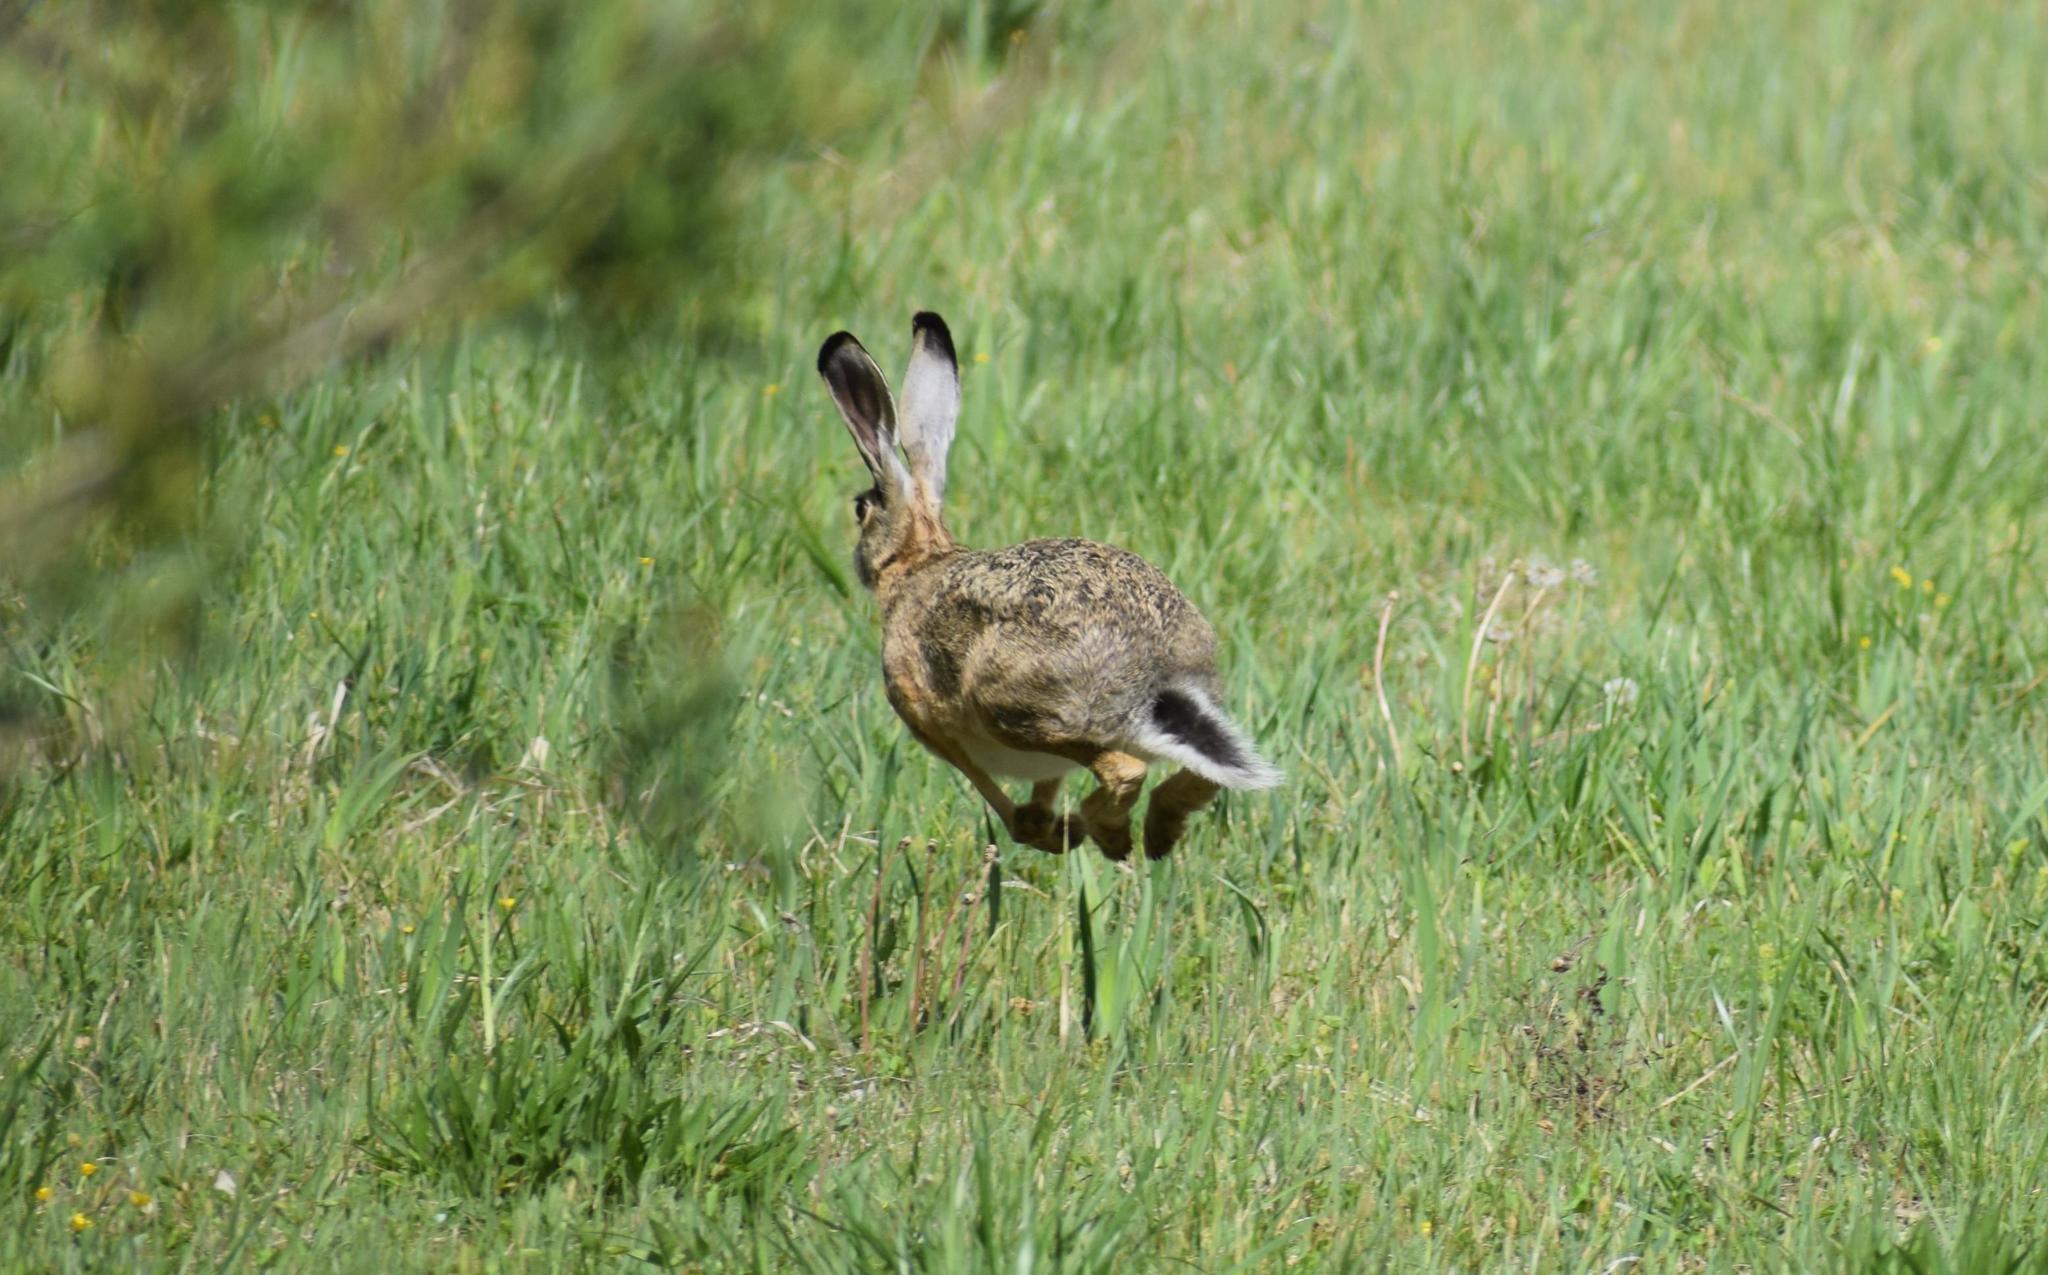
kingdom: Animalia
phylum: Chordata
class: Mammalia
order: Lagomorpha
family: Leporidae
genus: Lepus
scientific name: Lepus europaeus
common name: European hare
